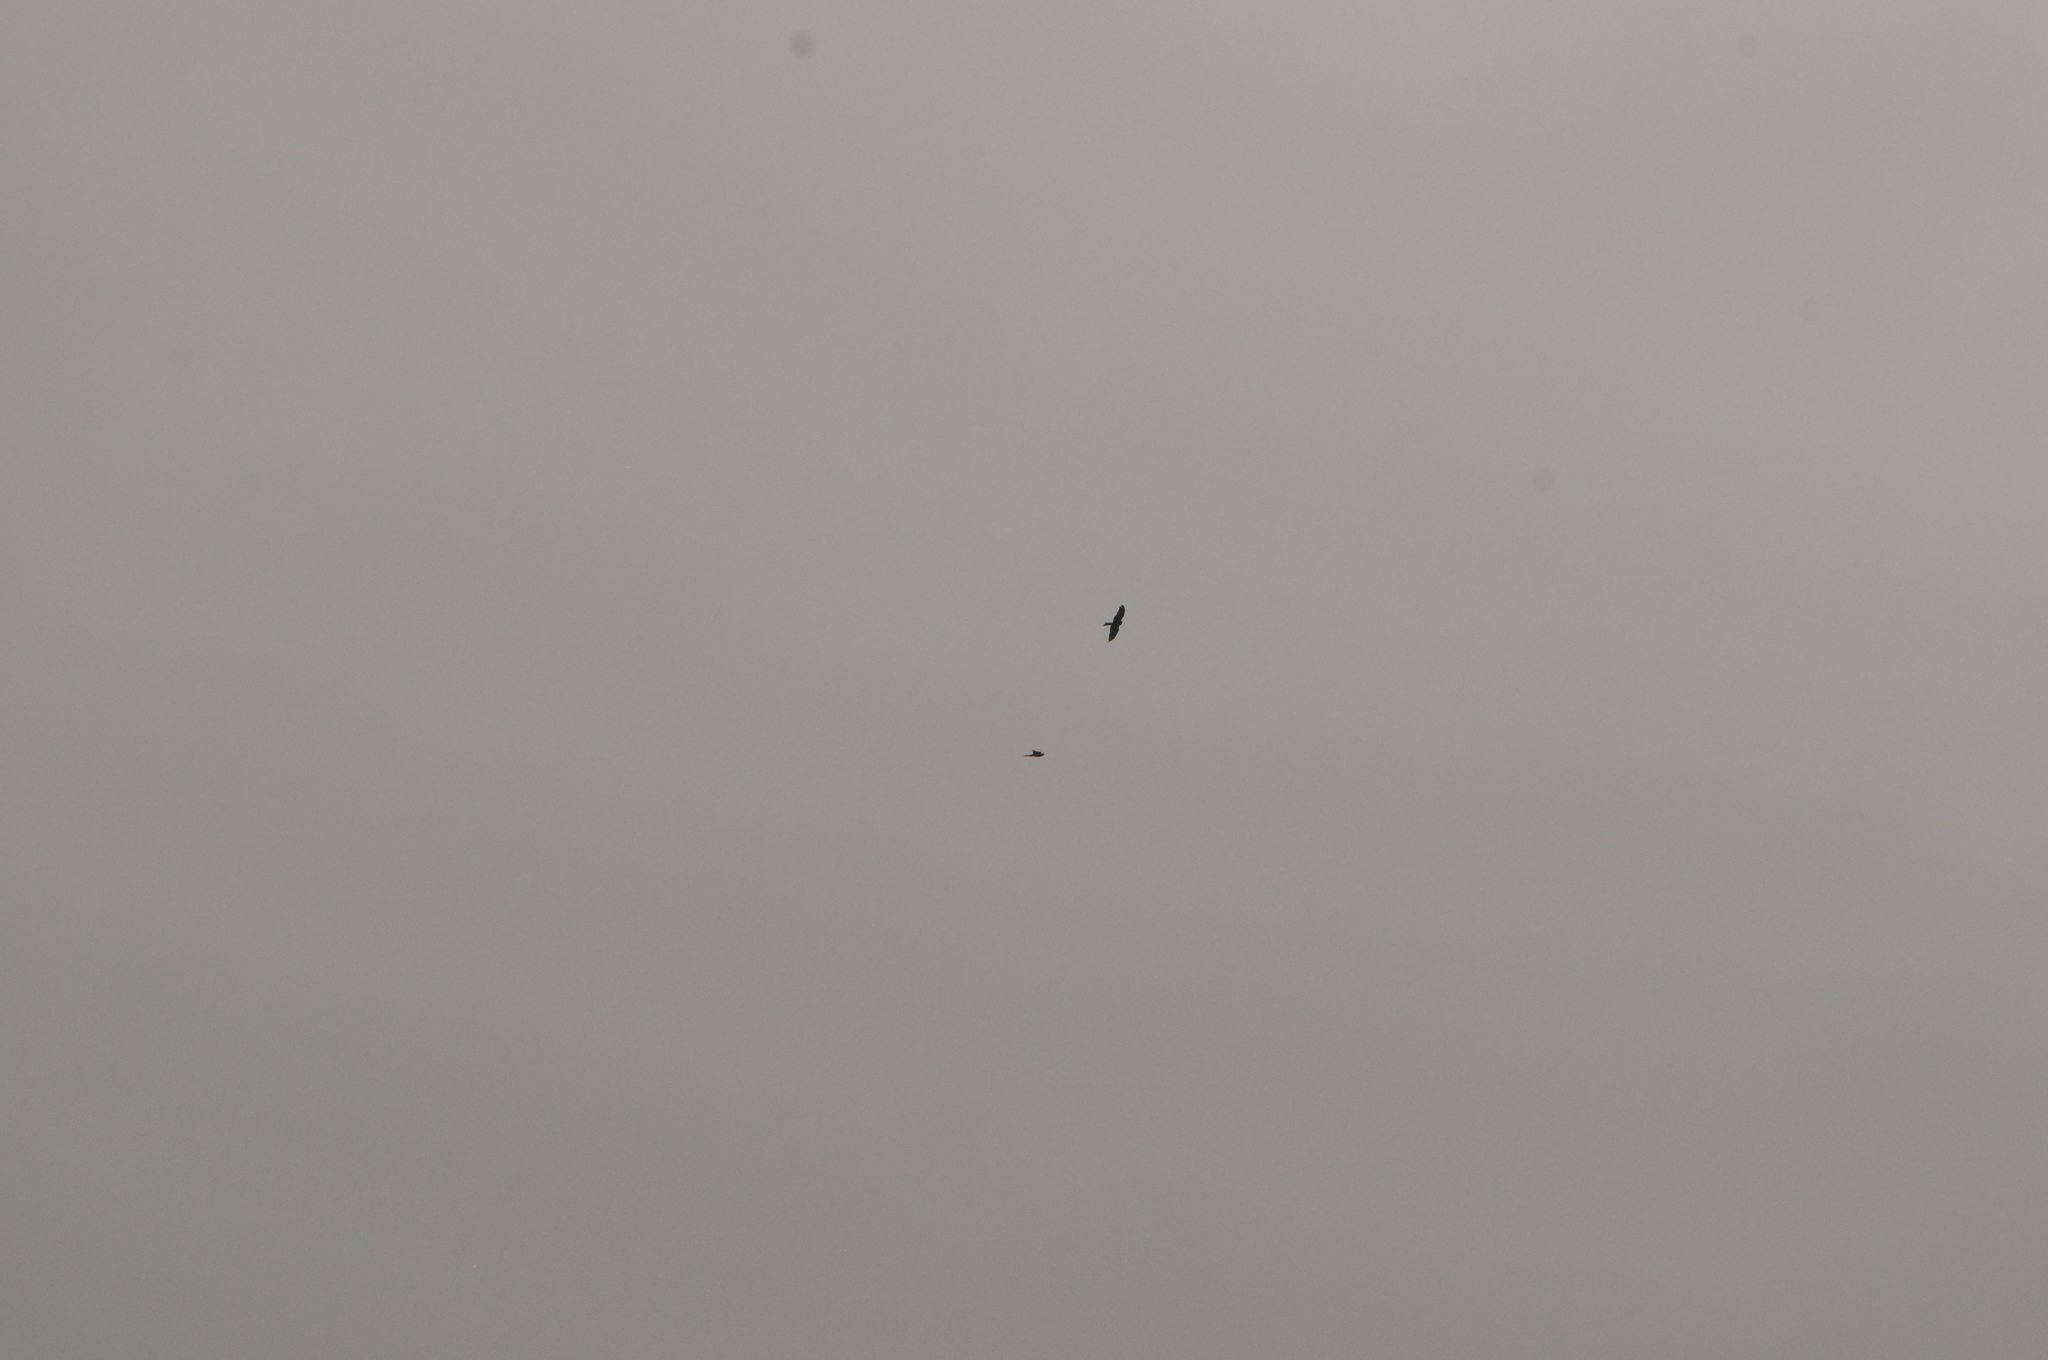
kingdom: Animalia
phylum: Chordata
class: Aves
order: Falconiformes
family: Falconidae
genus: Falco
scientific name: Falco novaeseelandiae
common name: New zealand falcon
